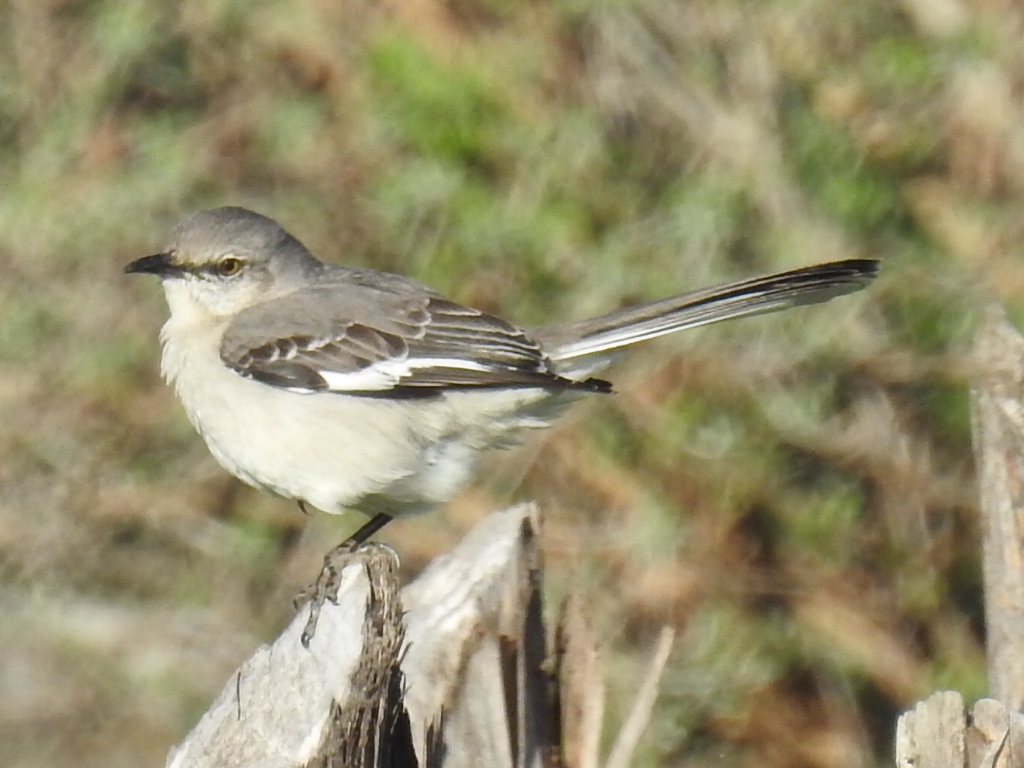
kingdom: Animalia
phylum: Chordata
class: Aves
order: Passeriformes
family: Mimidae
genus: Mimus
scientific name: Mimus polyglottos
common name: Northern mockingbird
